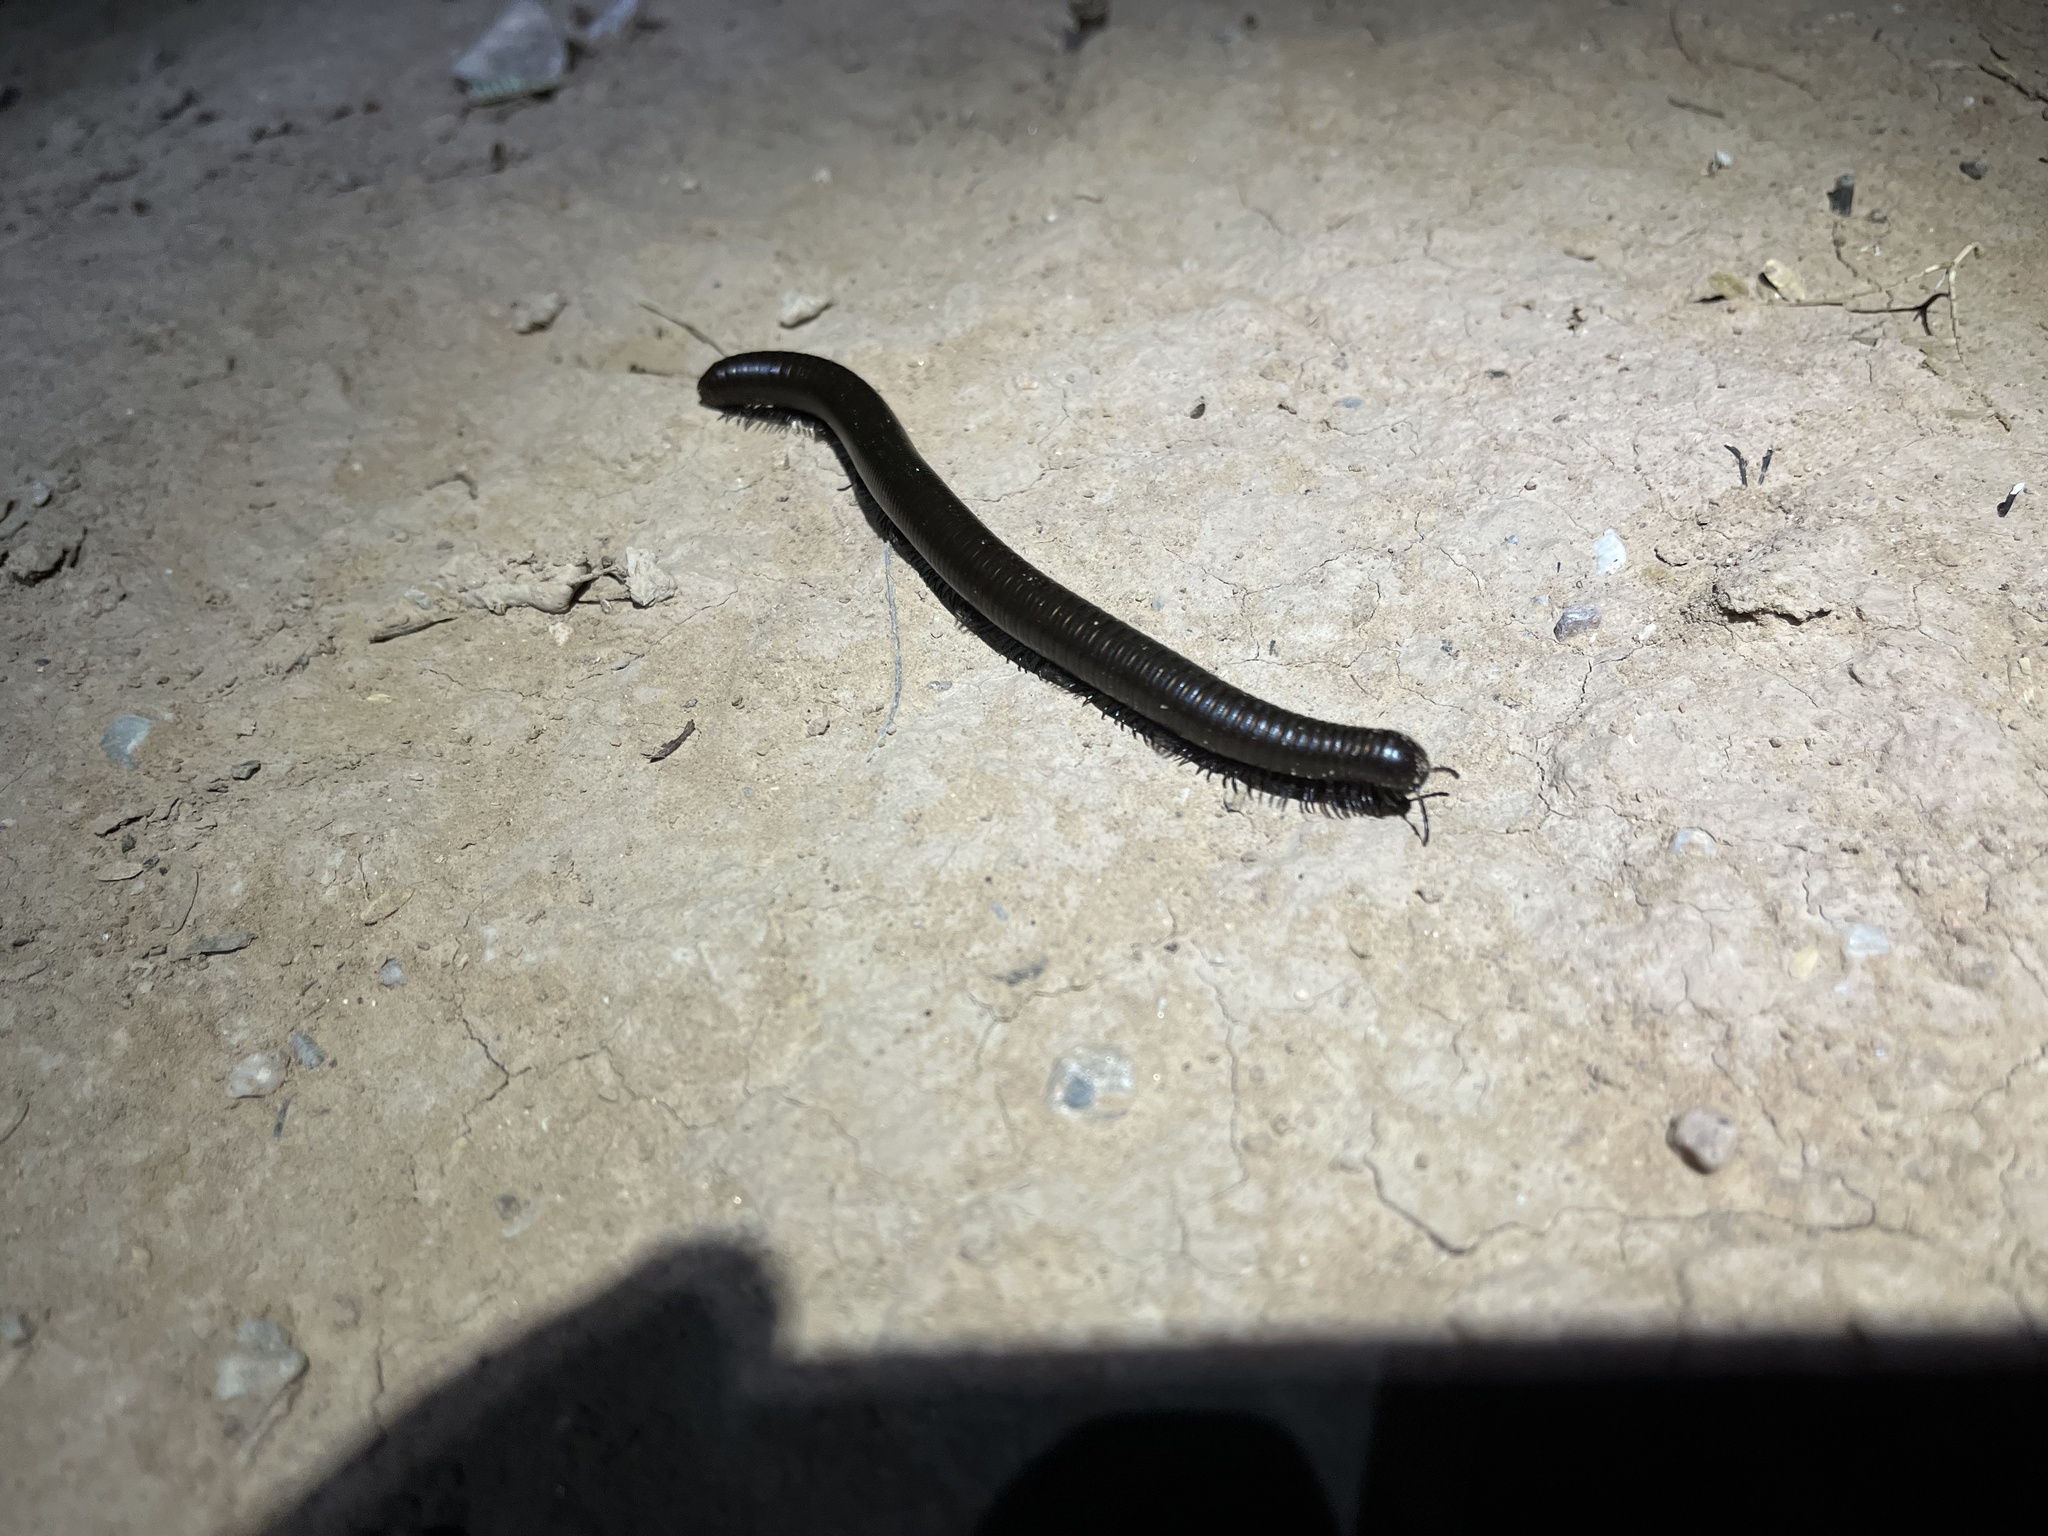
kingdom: Animalia
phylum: Arthropoda
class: Diplopoda
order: Spirostreptida
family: Spirostreptidae
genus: Orthoporus
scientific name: Orthoporus ornatus
